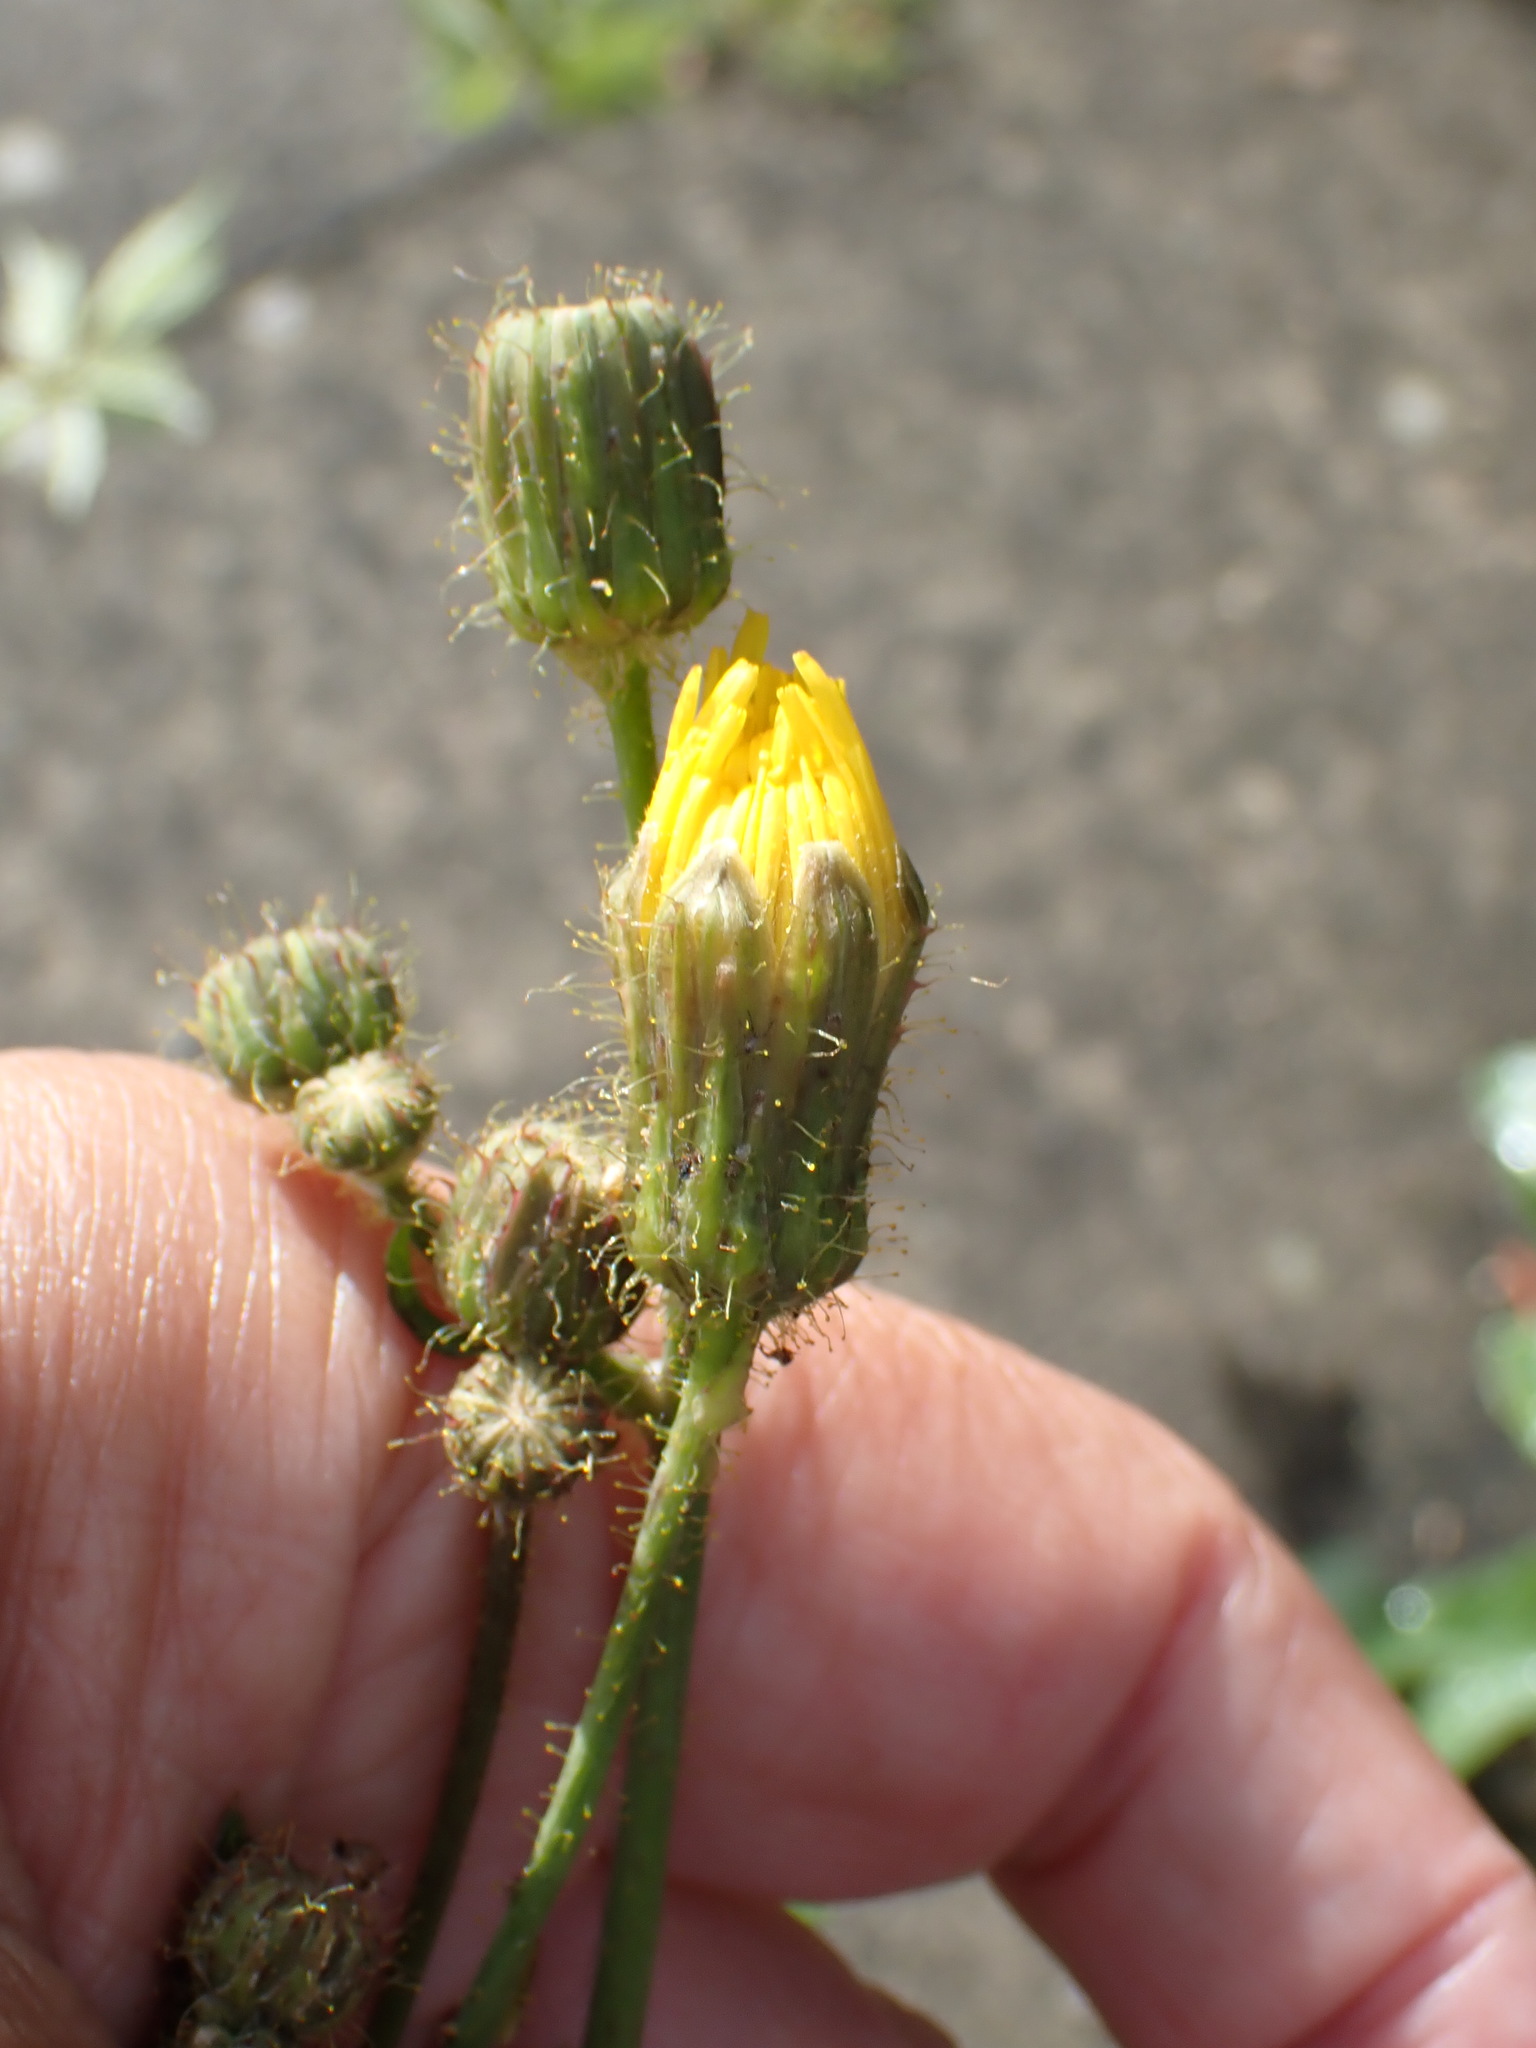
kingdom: Plantae
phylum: Tracheophyta
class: Magnoliopsida
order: Asterales
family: Asteraceae
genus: Sonchus
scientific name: Sonchus arvensis
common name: Perennial sow-thistle
